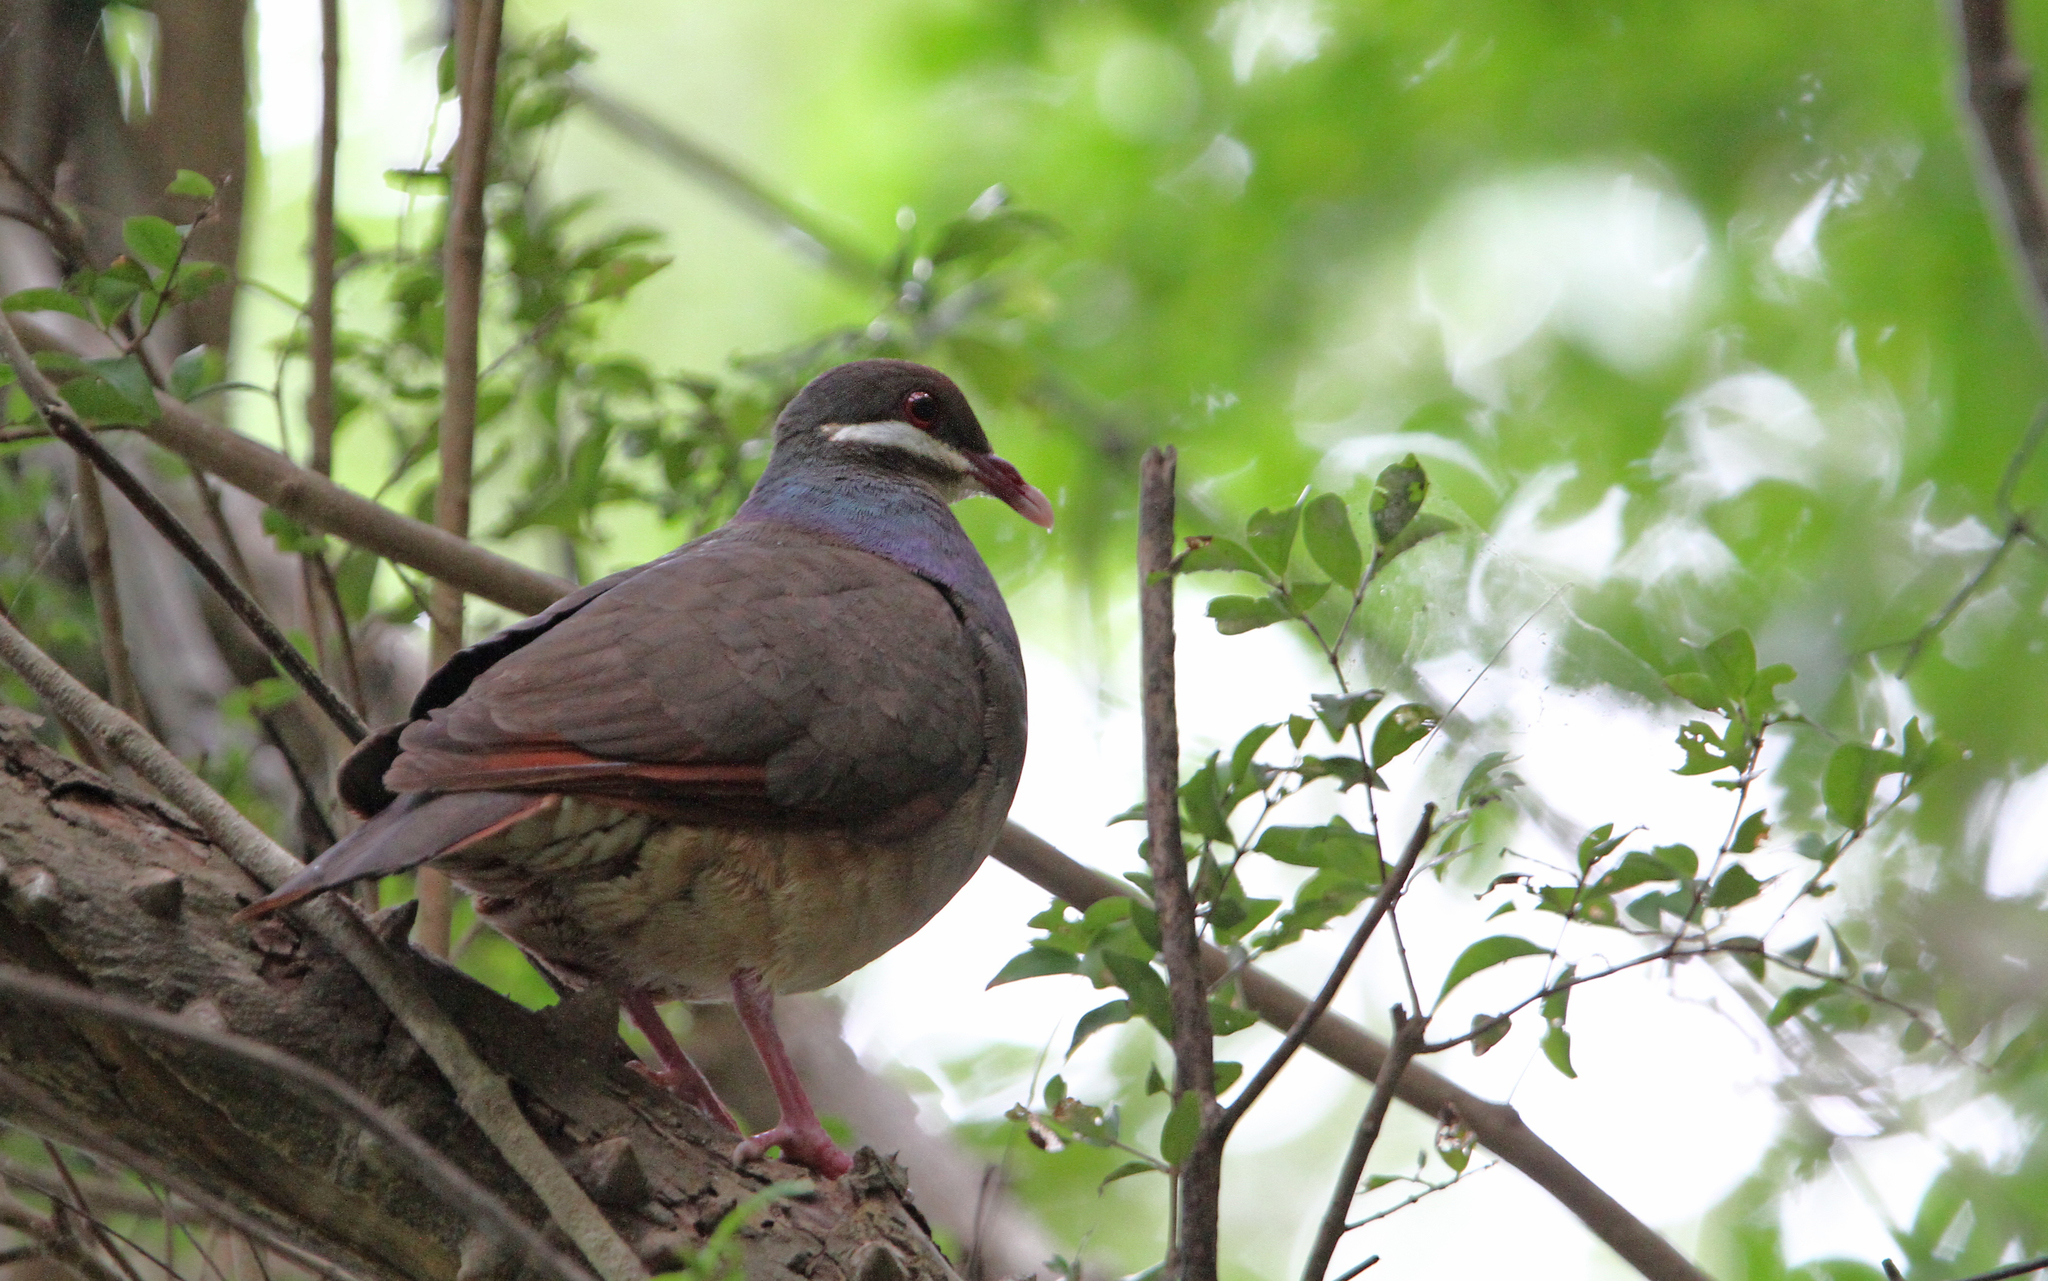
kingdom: Animalia
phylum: Chordata
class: Aves
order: Columbiformes
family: Columbidae
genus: Geotrygon
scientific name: Geotrygon mystacea
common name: Bridled quail-dove
